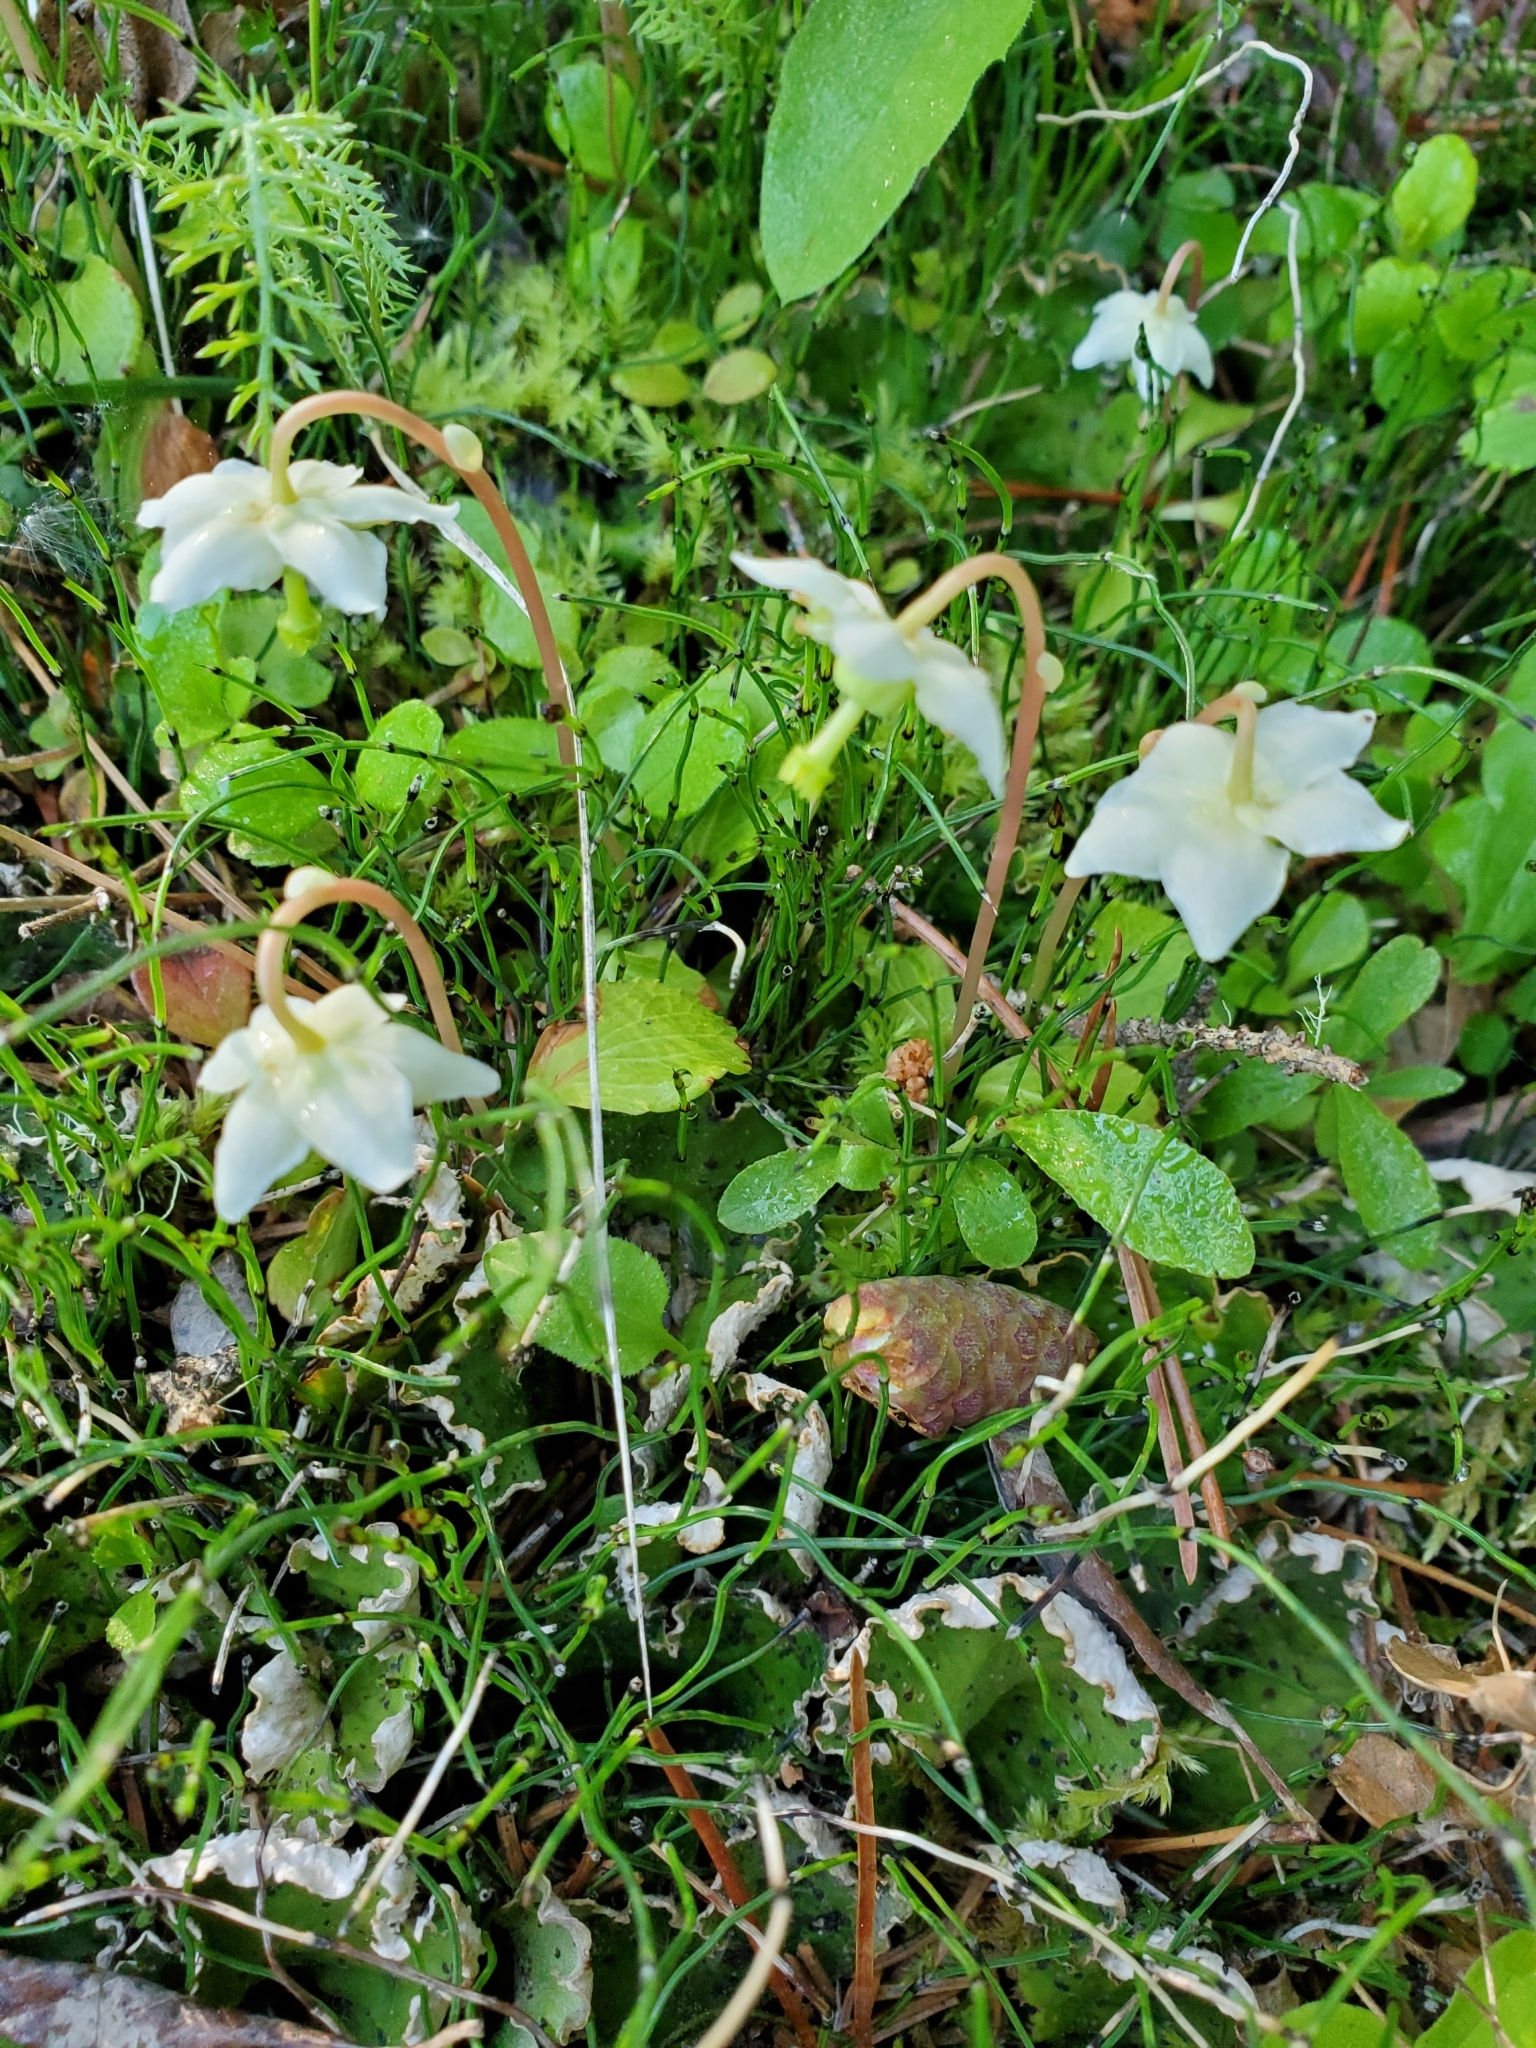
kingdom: Plantae
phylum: Tracheophyta
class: Magnoliopsida
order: Ericales
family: Ericaceae
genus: Moneses
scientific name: Moneses uniflora
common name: One-flowered wintergreen
